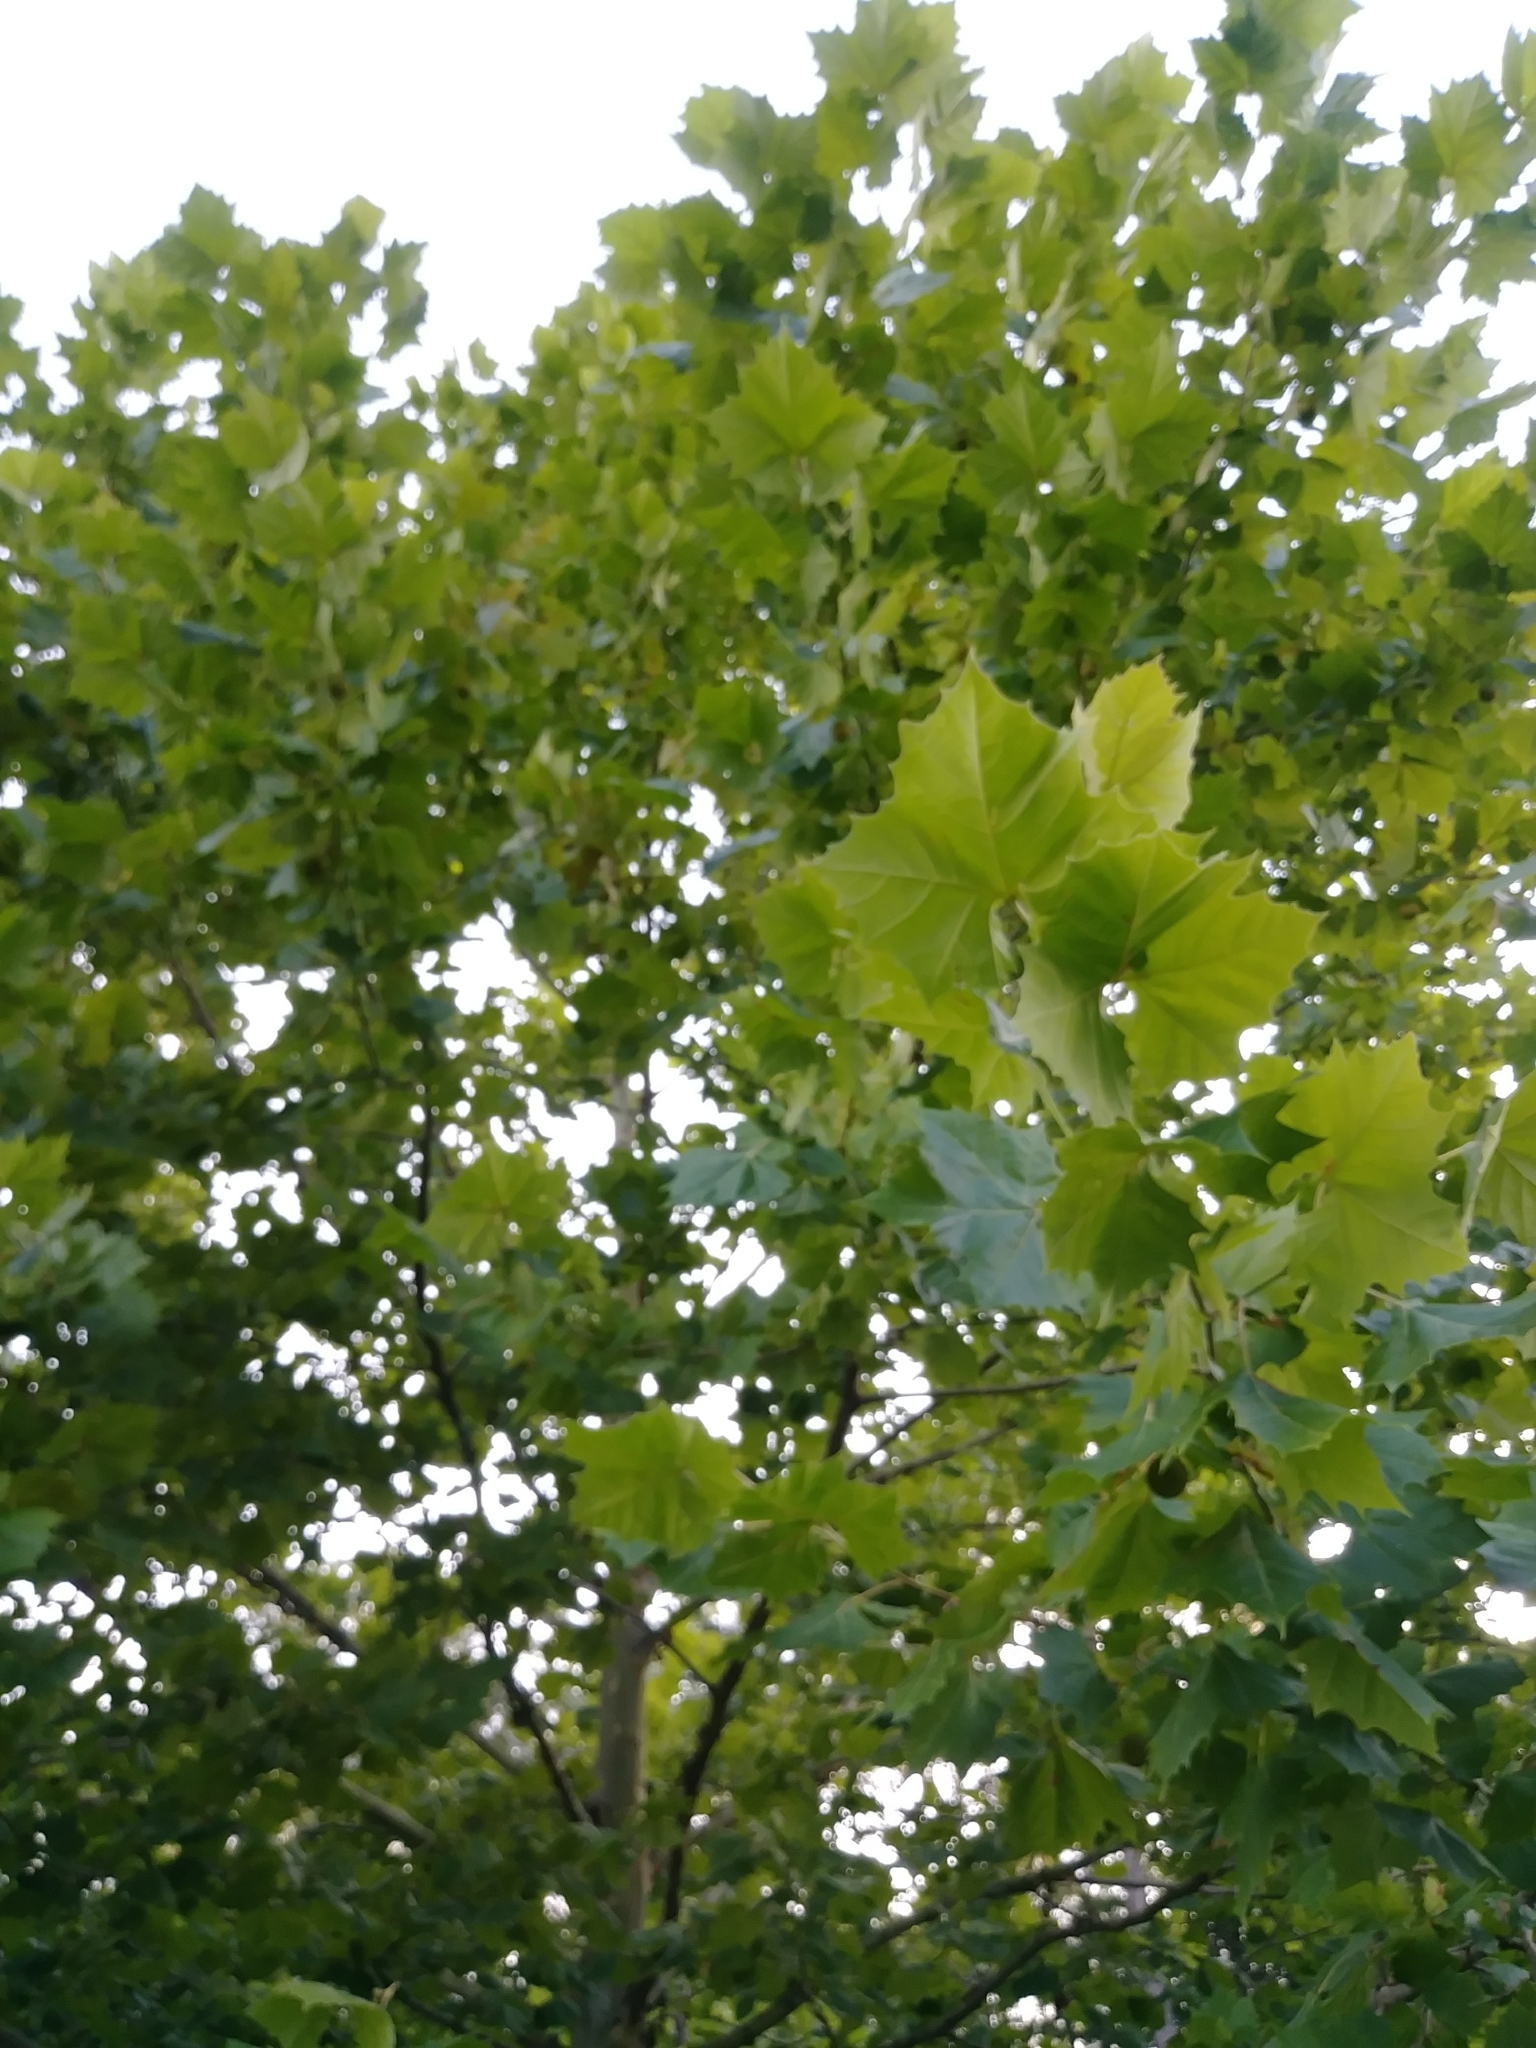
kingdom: Plantae
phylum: Tracheophyta
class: Magnoliopsida
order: Proteales
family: Platanaceae
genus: Platanus
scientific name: Platanus occidentalis
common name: American sycamore
